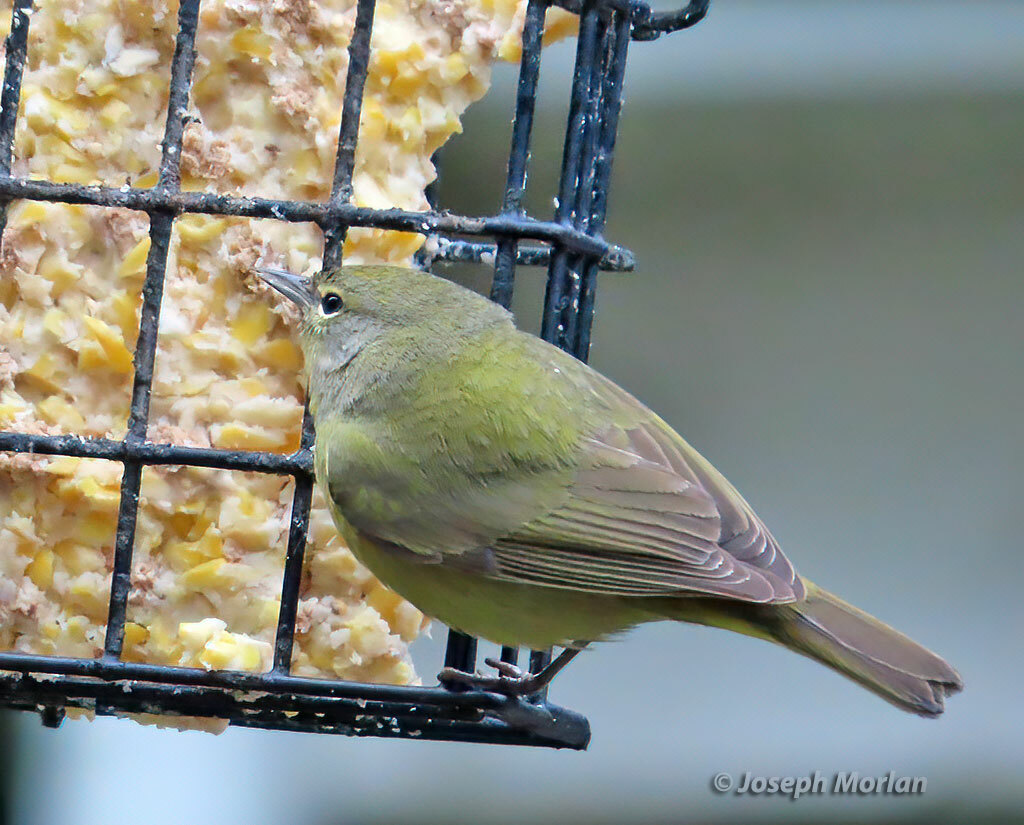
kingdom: Animalia
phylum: Chordata
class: Aves
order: Passeriformes
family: Parulidae
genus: Leiothlypis
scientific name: Leiothlypis celata
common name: Orange-crowned warbler
